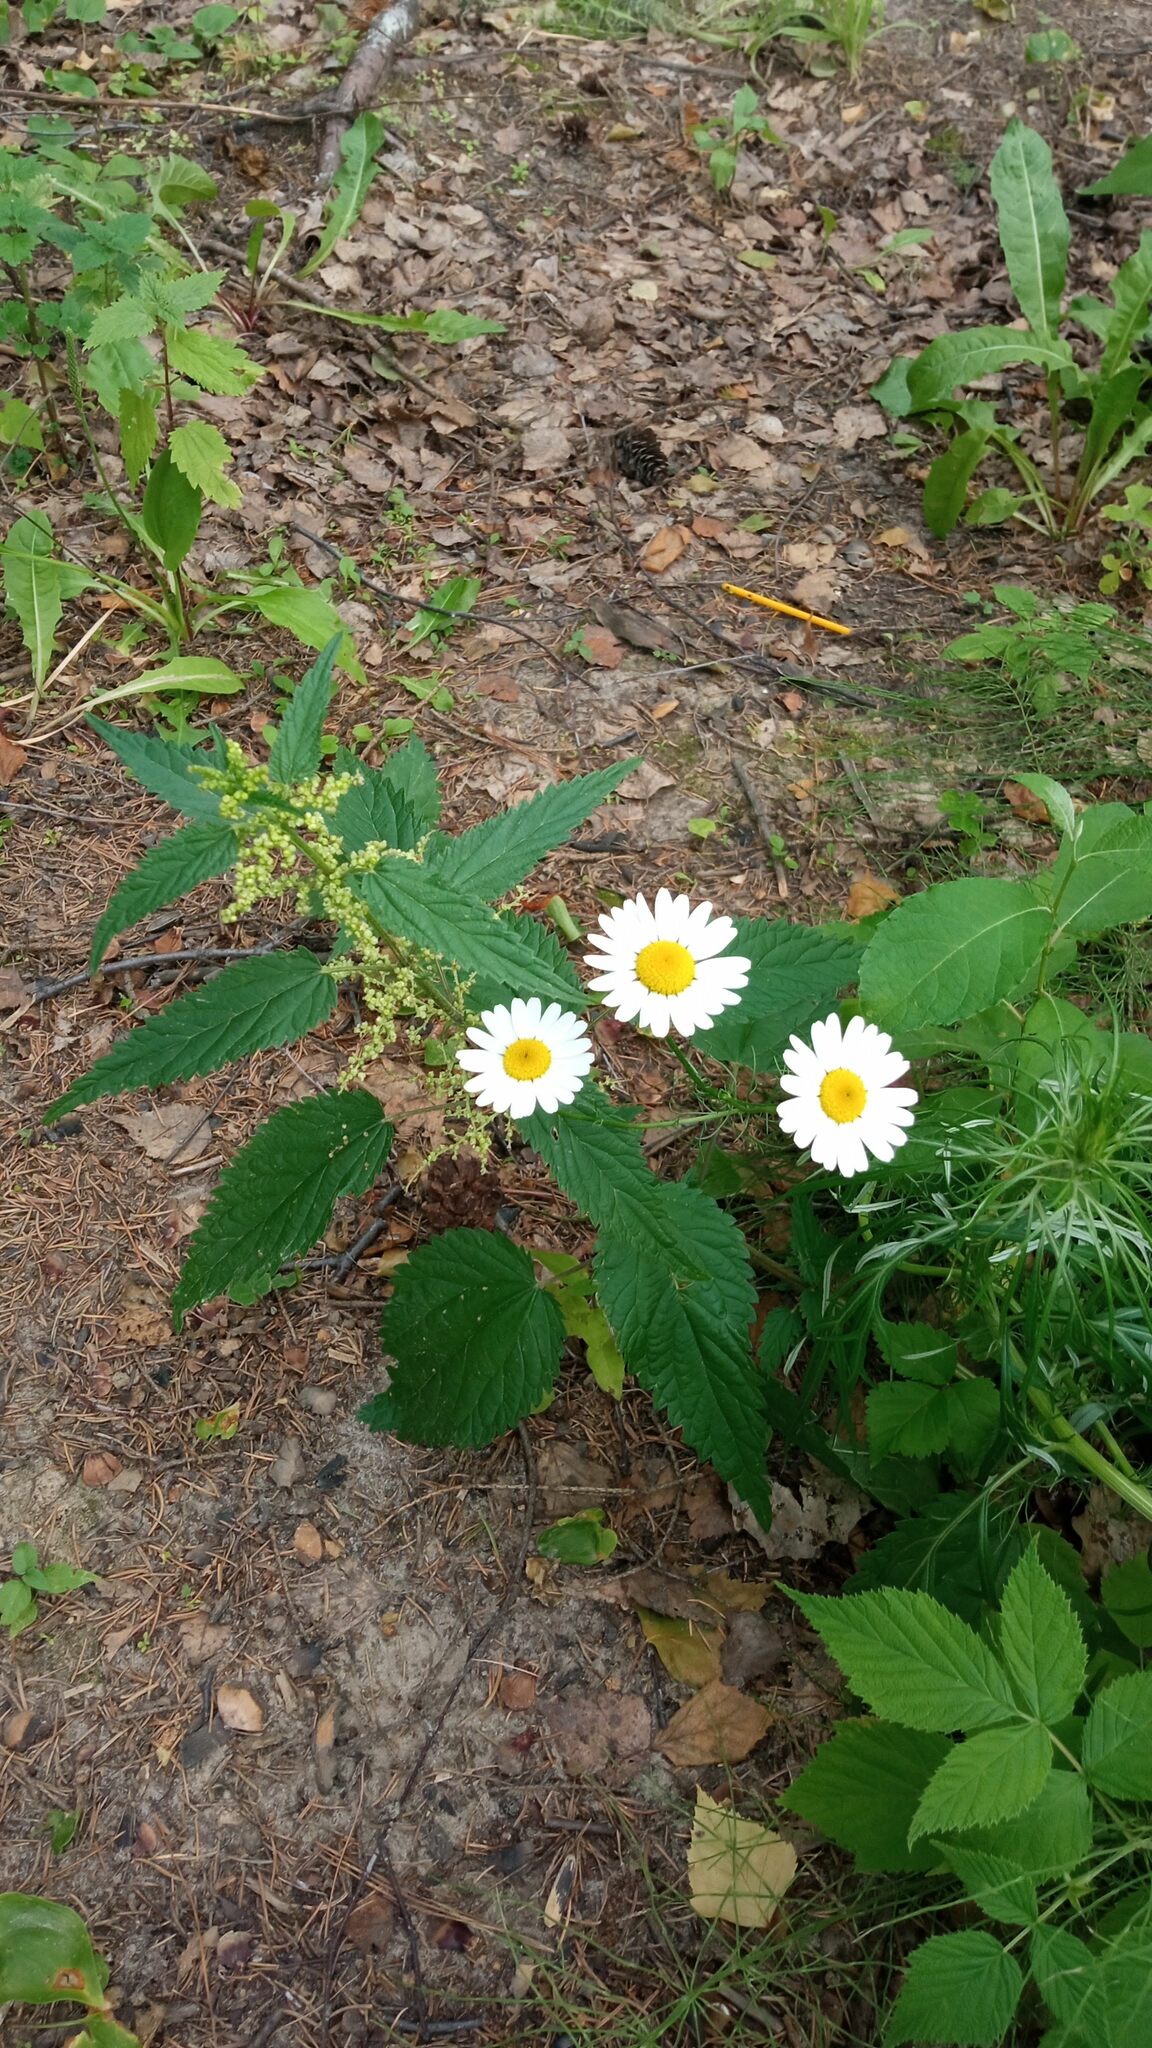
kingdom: Plantae
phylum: Tracheophyta
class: Magnoliopsida
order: Asterales
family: Asteraceae
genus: Tripleurospermum
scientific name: Tripleurospermum inodorum
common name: Scentless mayweed
